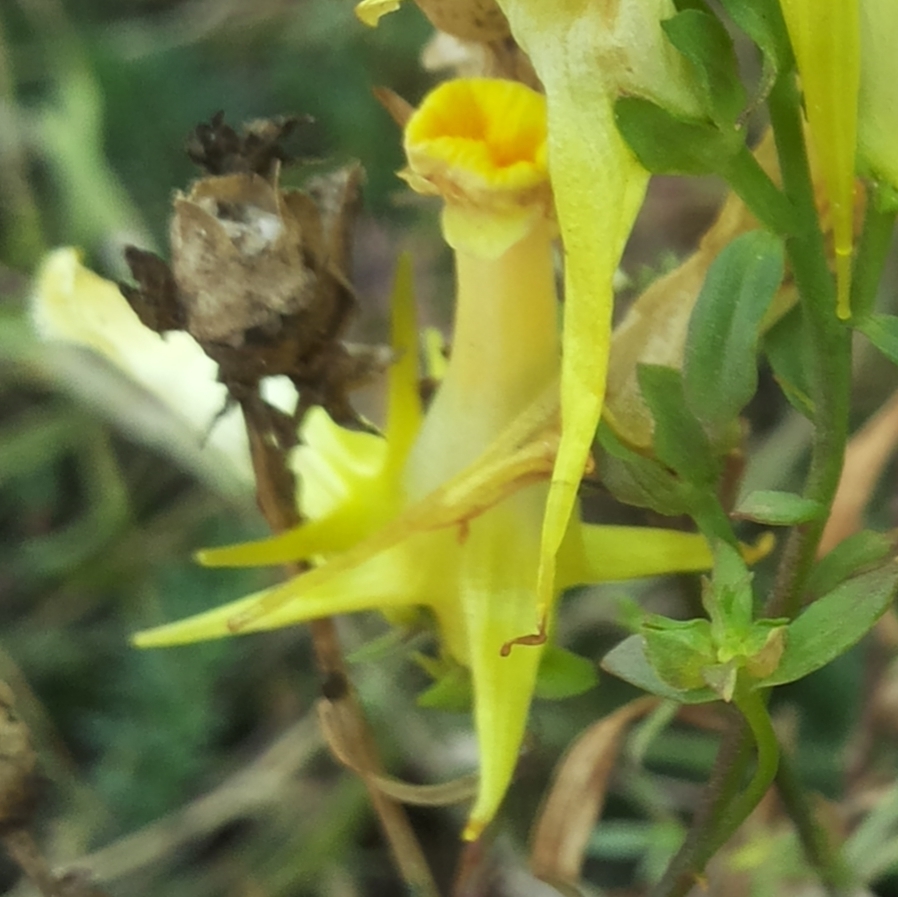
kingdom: Plantae
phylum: Tracheophyta
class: Magnoliopsida
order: Lamiales
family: Plantaginaceae
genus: Linaria
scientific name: Linaria vulgaris
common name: Butter and eggs
